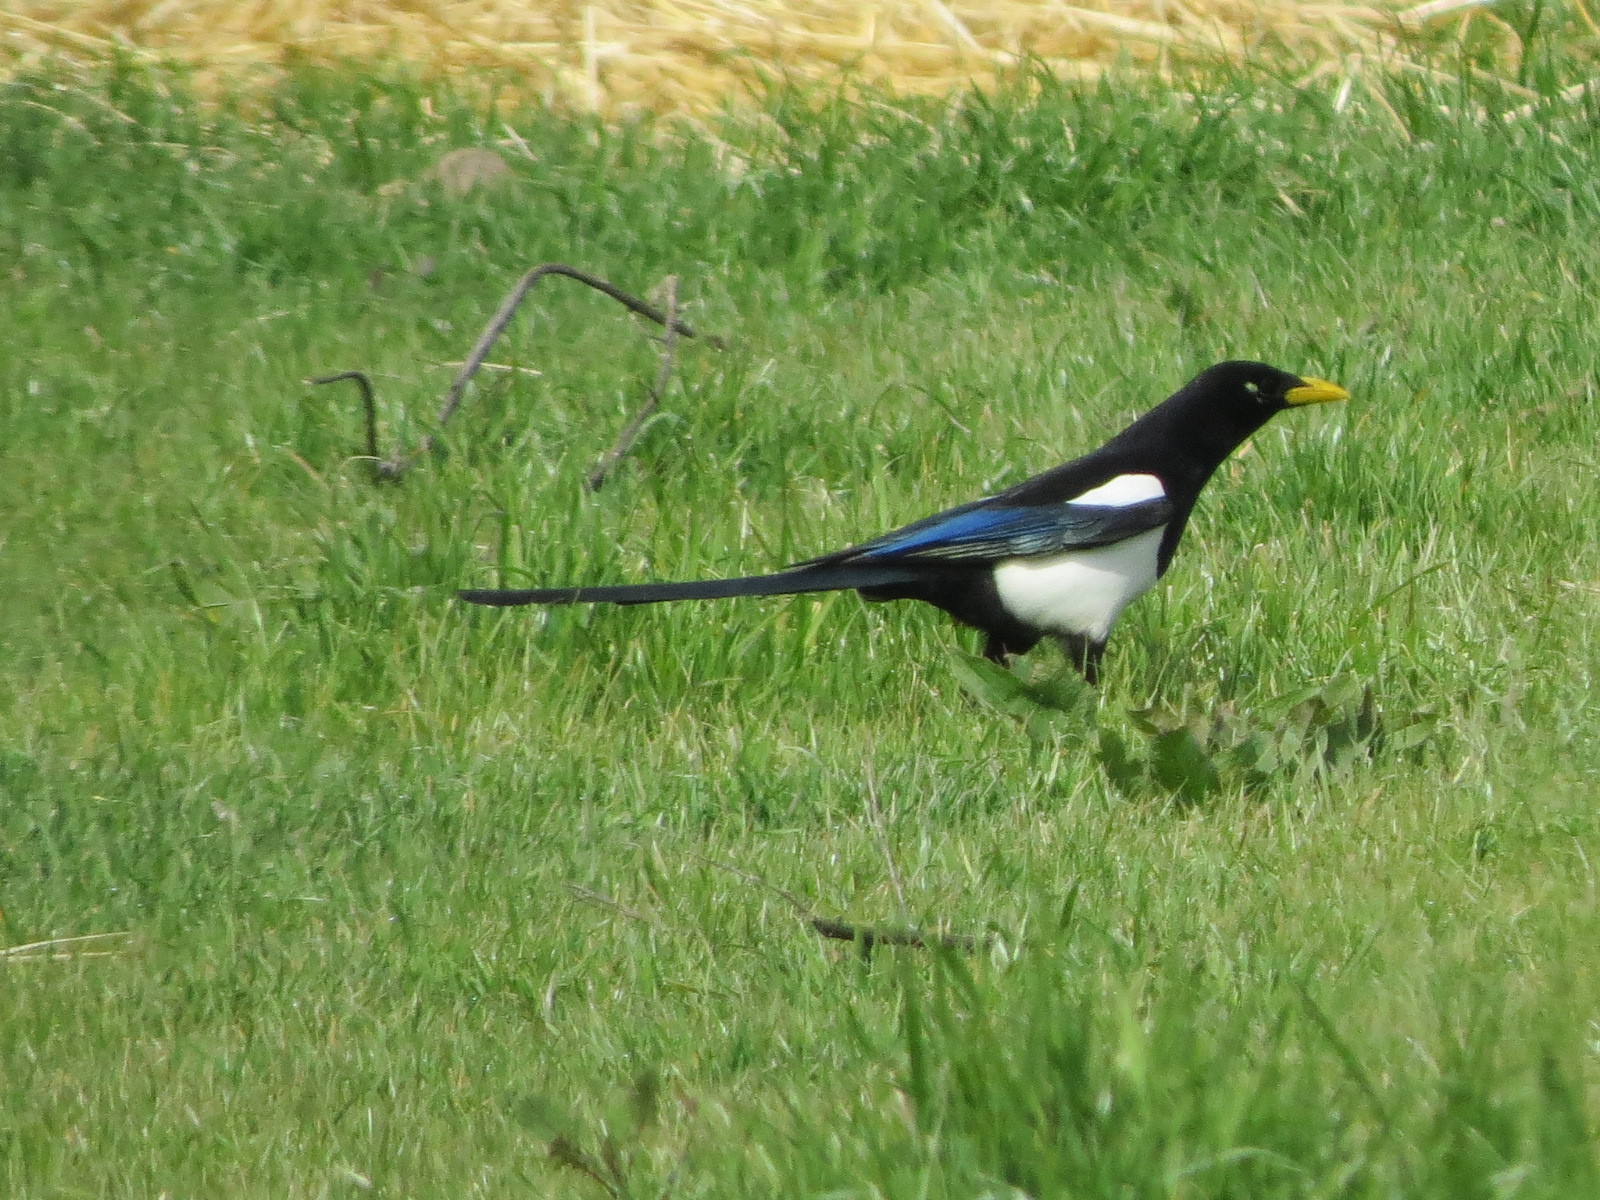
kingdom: Animalia
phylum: Chordata
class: Aves
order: Passeriformes
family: Corvidae
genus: Pica
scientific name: Pica nuttalli
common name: Yellow-billed magpie
